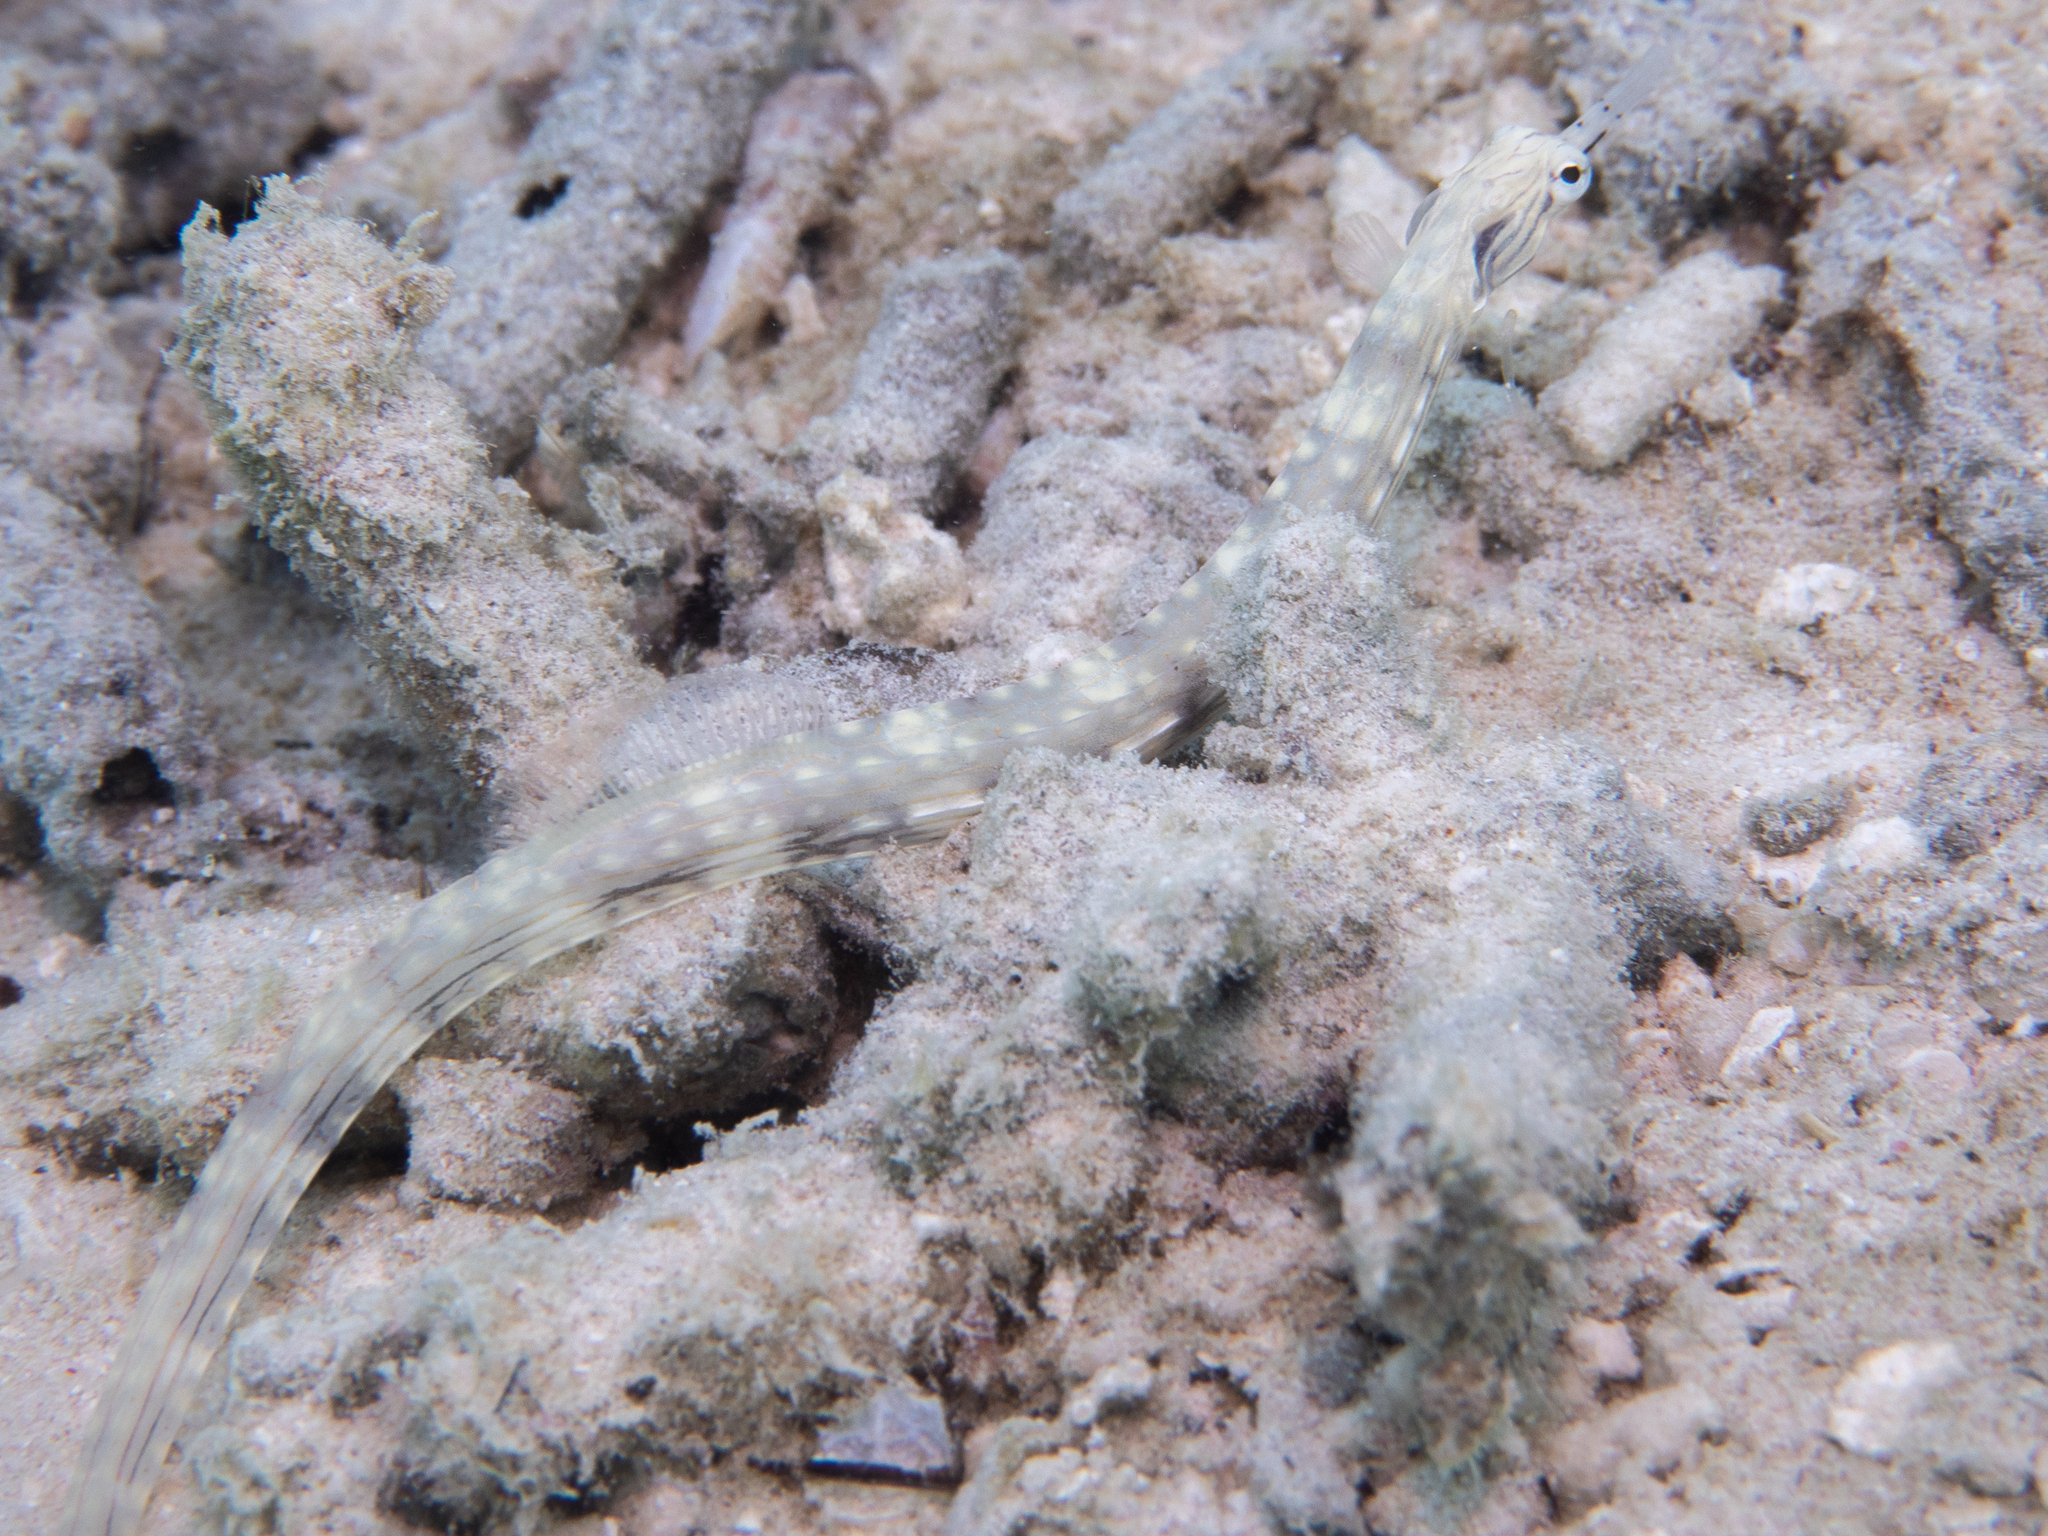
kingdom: Animalia
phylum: Chordata
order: Syngnathiformes
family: Syngnathidae
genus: Corythoichthys
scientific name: Corythoichthys haematopterus
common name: Bloodspot pipefish
